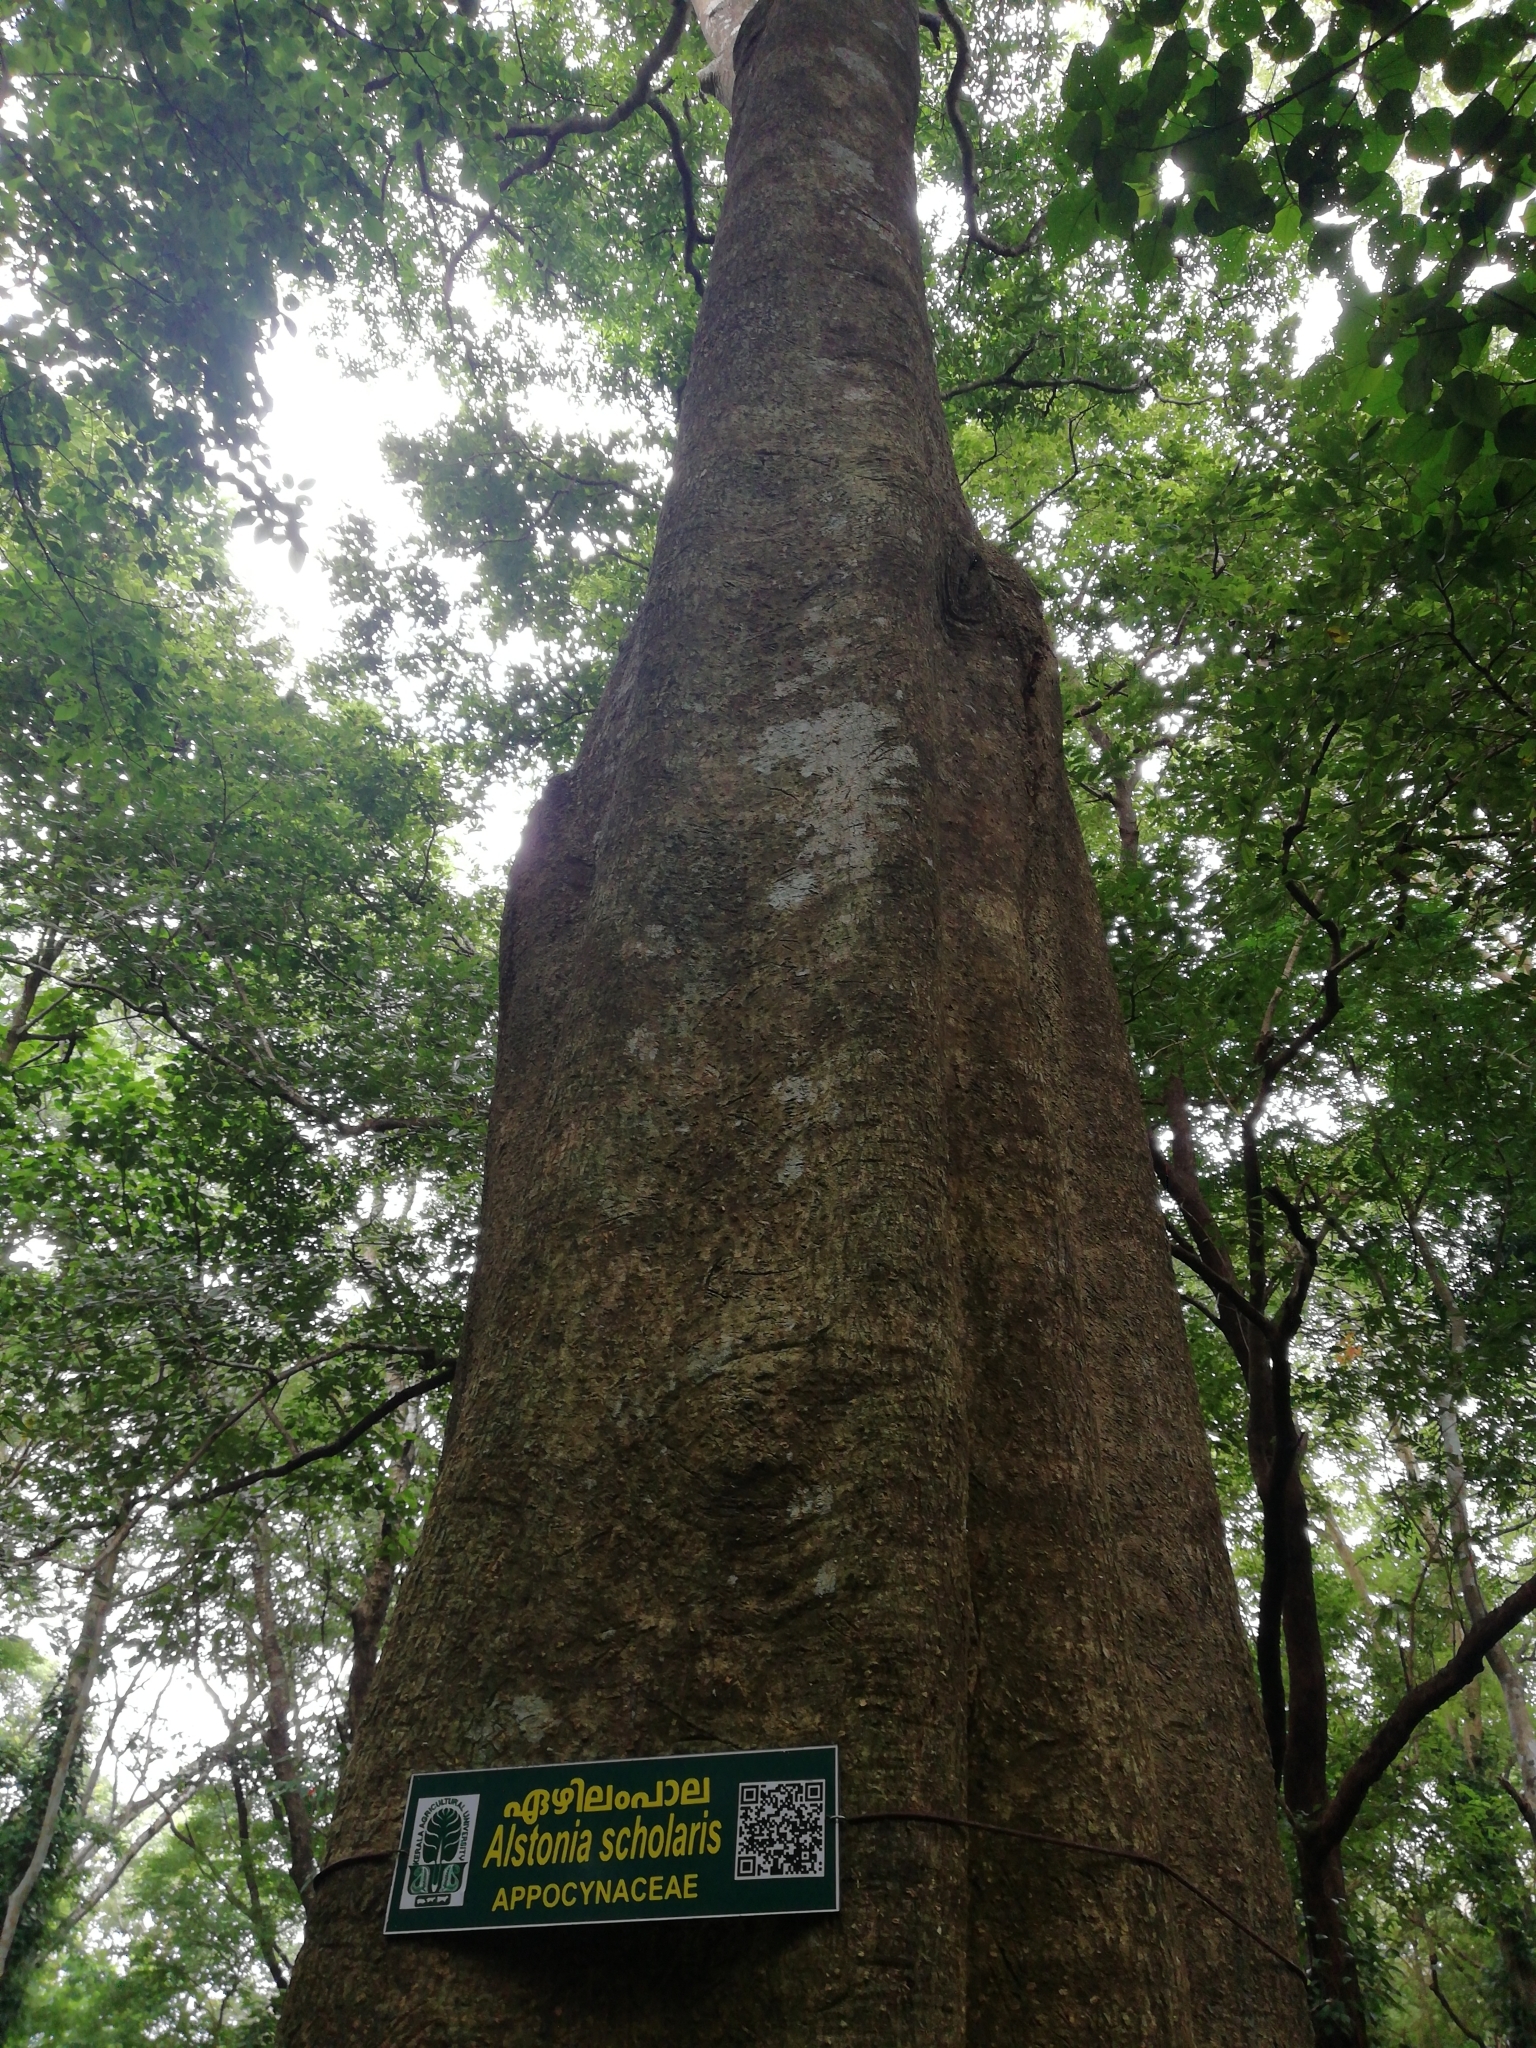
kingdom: Plantae
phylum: Tracheophyta
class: Magnoliopsida
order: Gentianales
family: Apocynaceae
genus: Alstonia
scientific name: Alstonia scholaris
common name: White cheesewood
